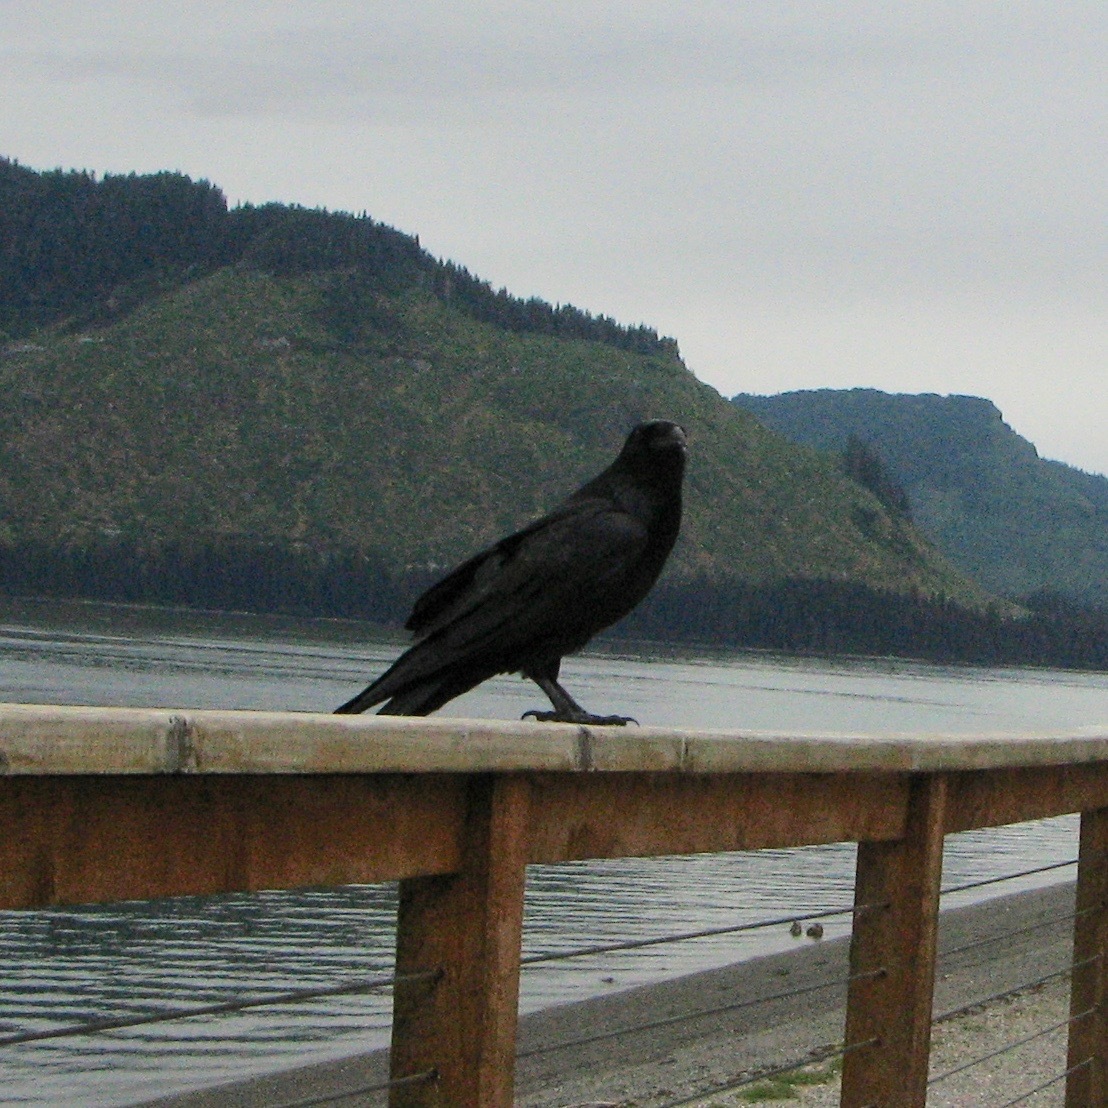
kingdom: Animalia
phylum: Chordata
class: Aves
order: Passeriformes
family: Corvidae
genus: Corvus
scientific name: Corvus corax
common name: Common raven
